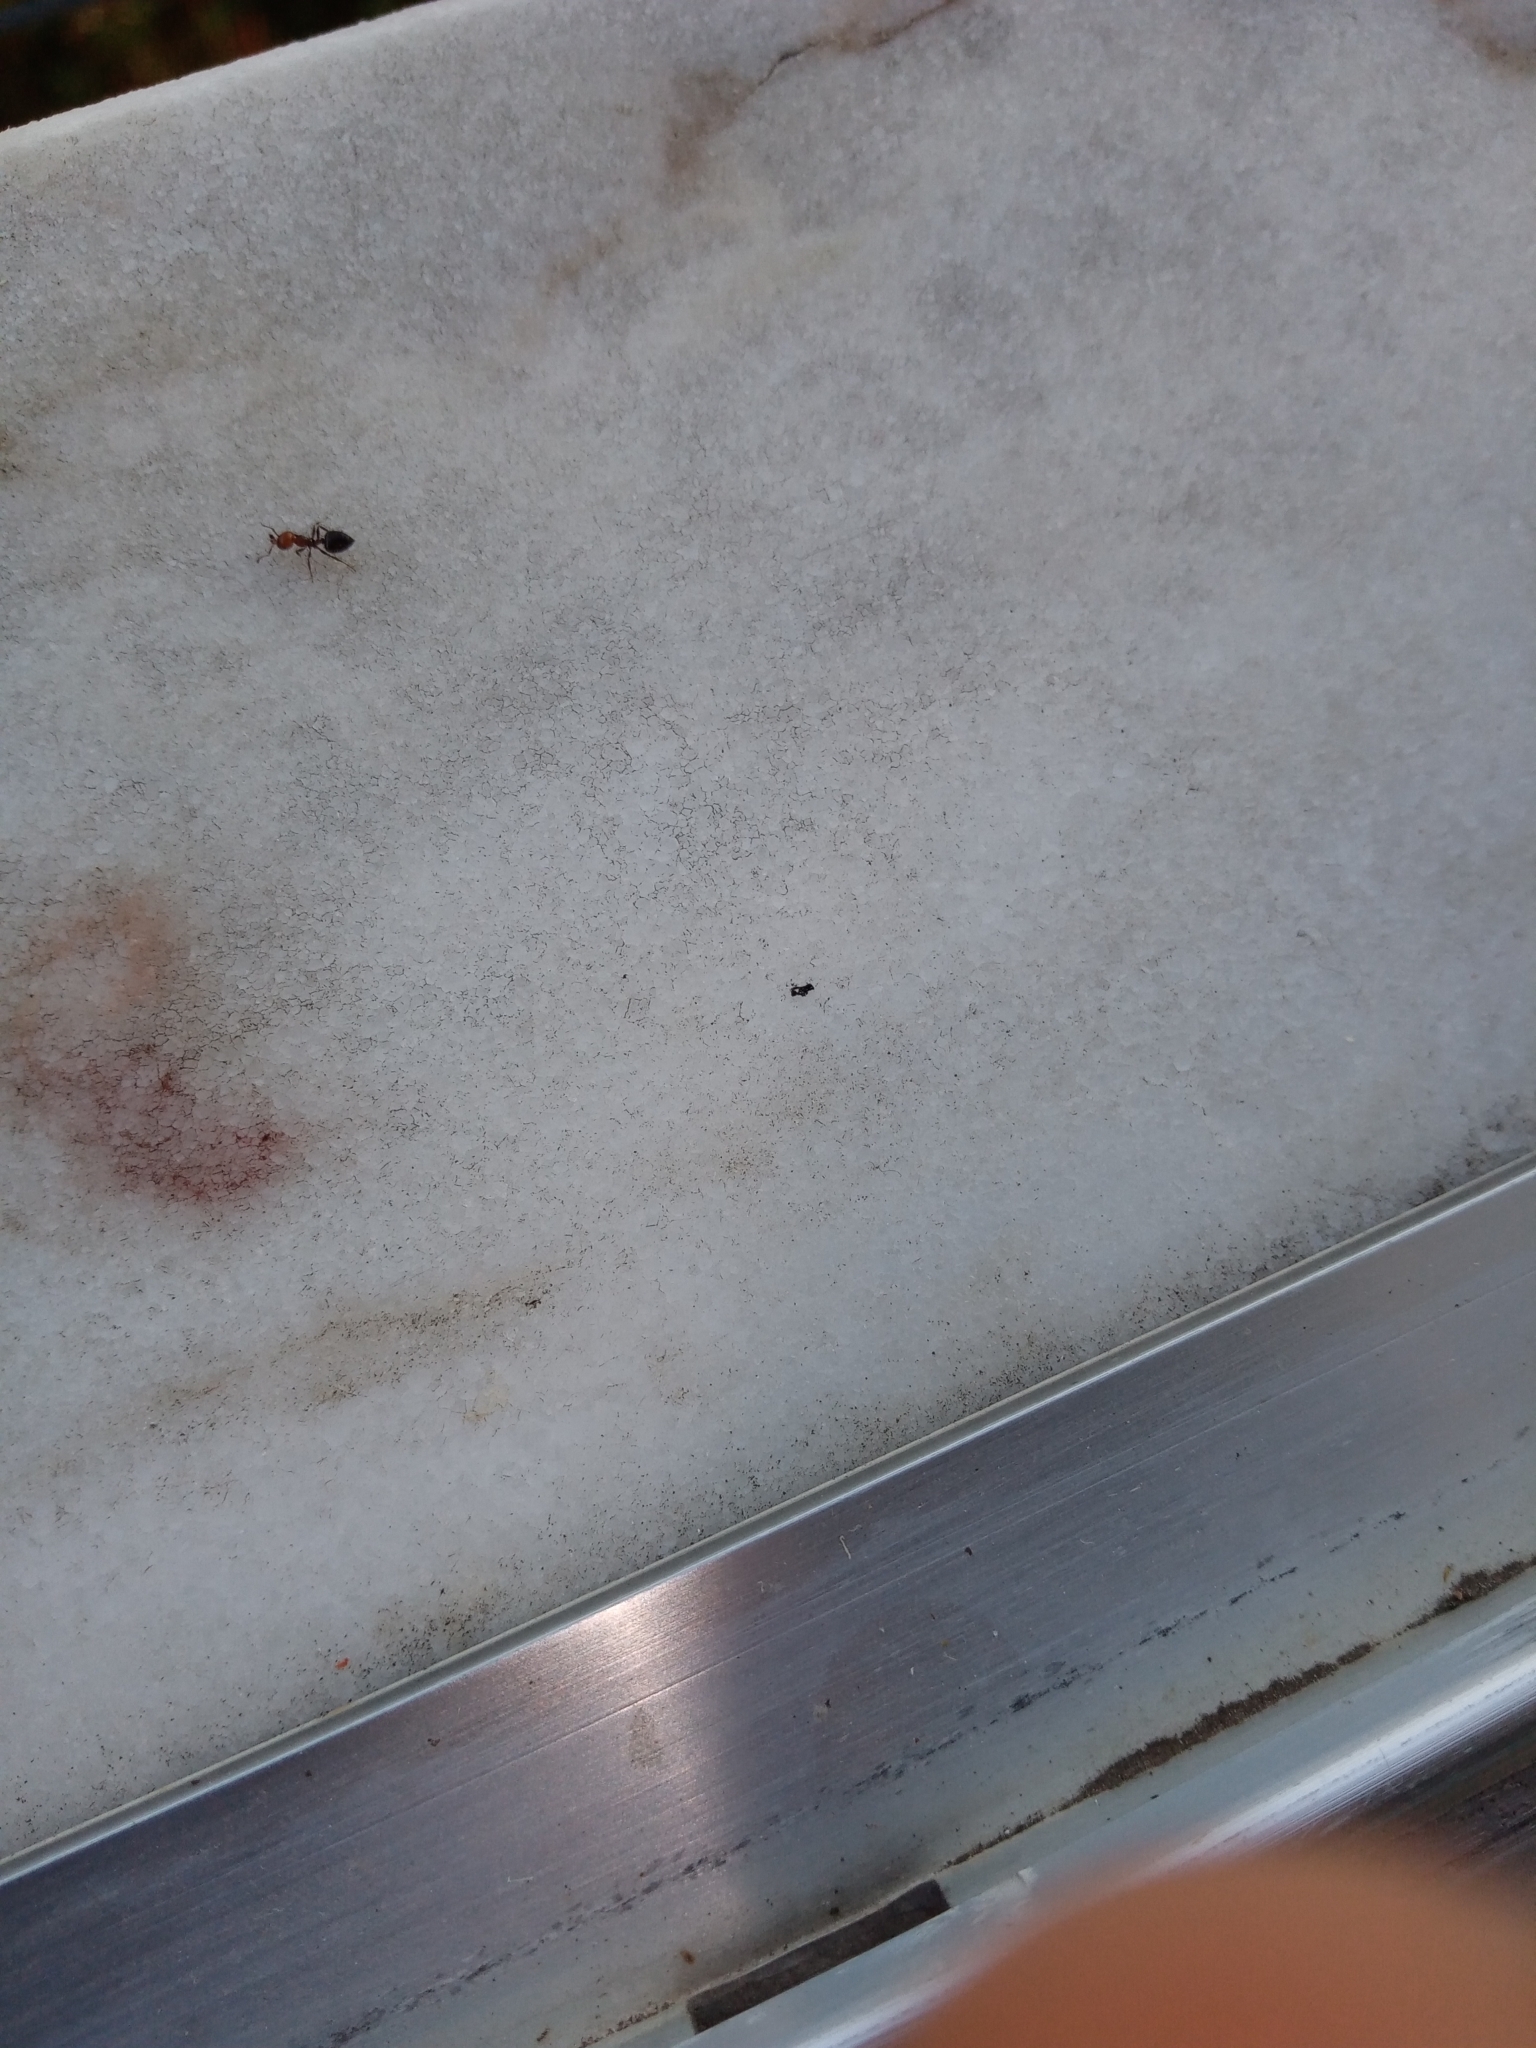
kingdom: Animalia
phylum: Arthropoda
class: Insecta
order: Hymenoptera
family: Formicidae
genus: Crematogaster
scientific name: Crematogaster scutellaris
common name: Fourmi du liège
